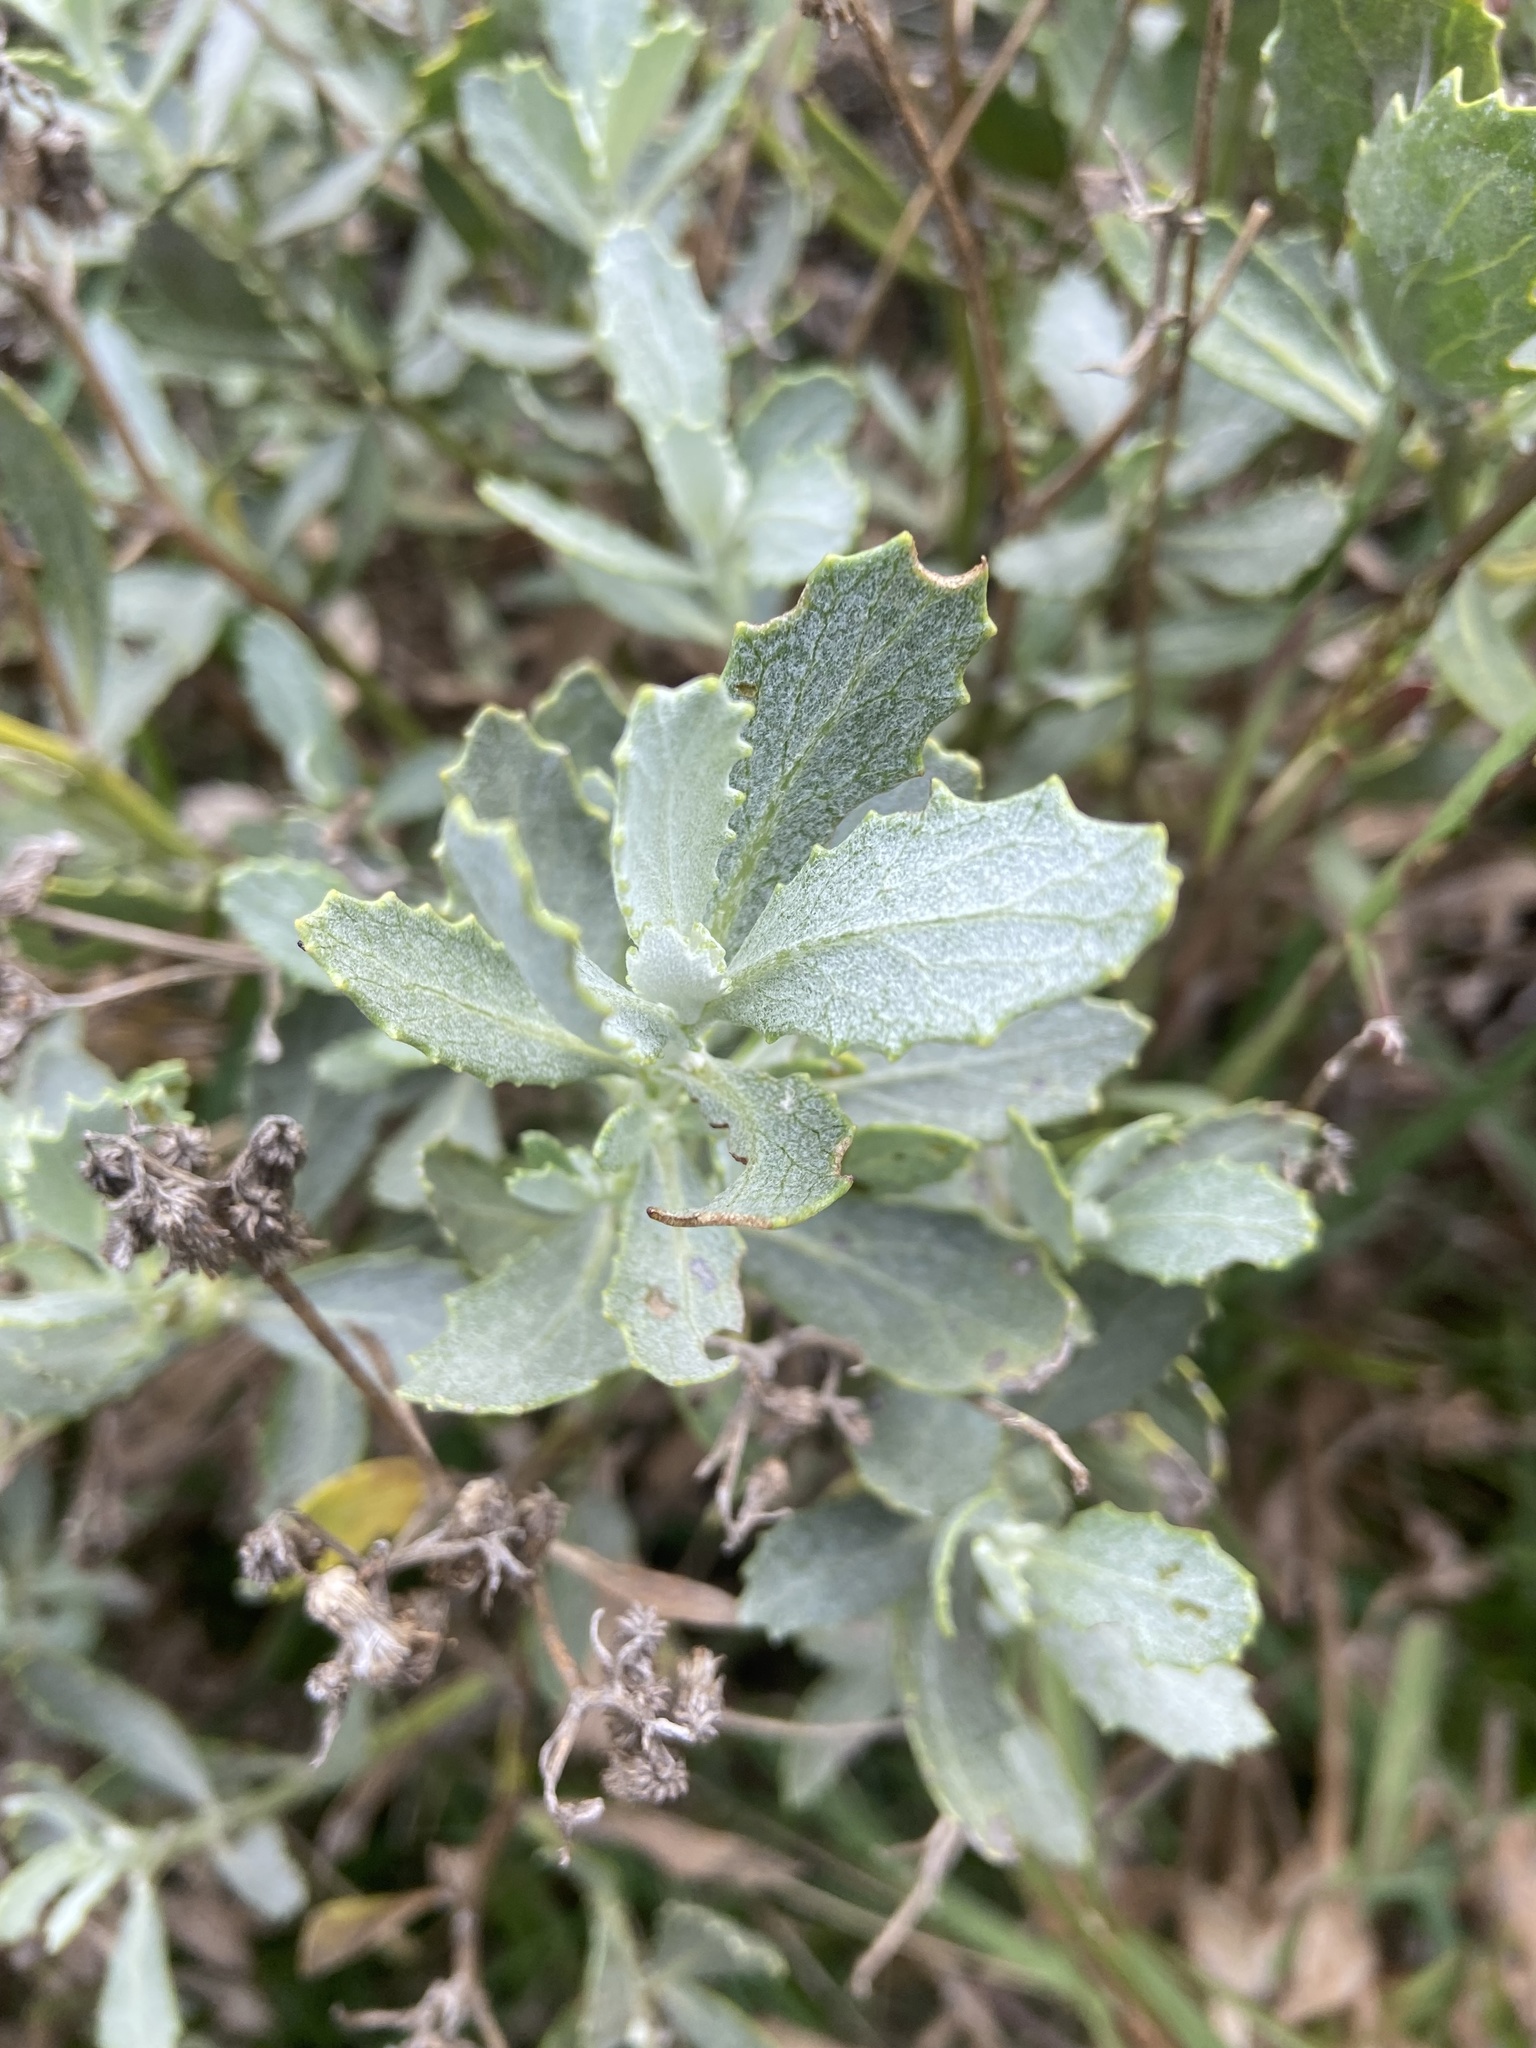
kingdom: Plantae
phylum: Tracheophyta
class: Magnoliopsida
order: Asterales
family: Asteraceae
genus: Osteospermum
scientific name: Osteospermum incanum
